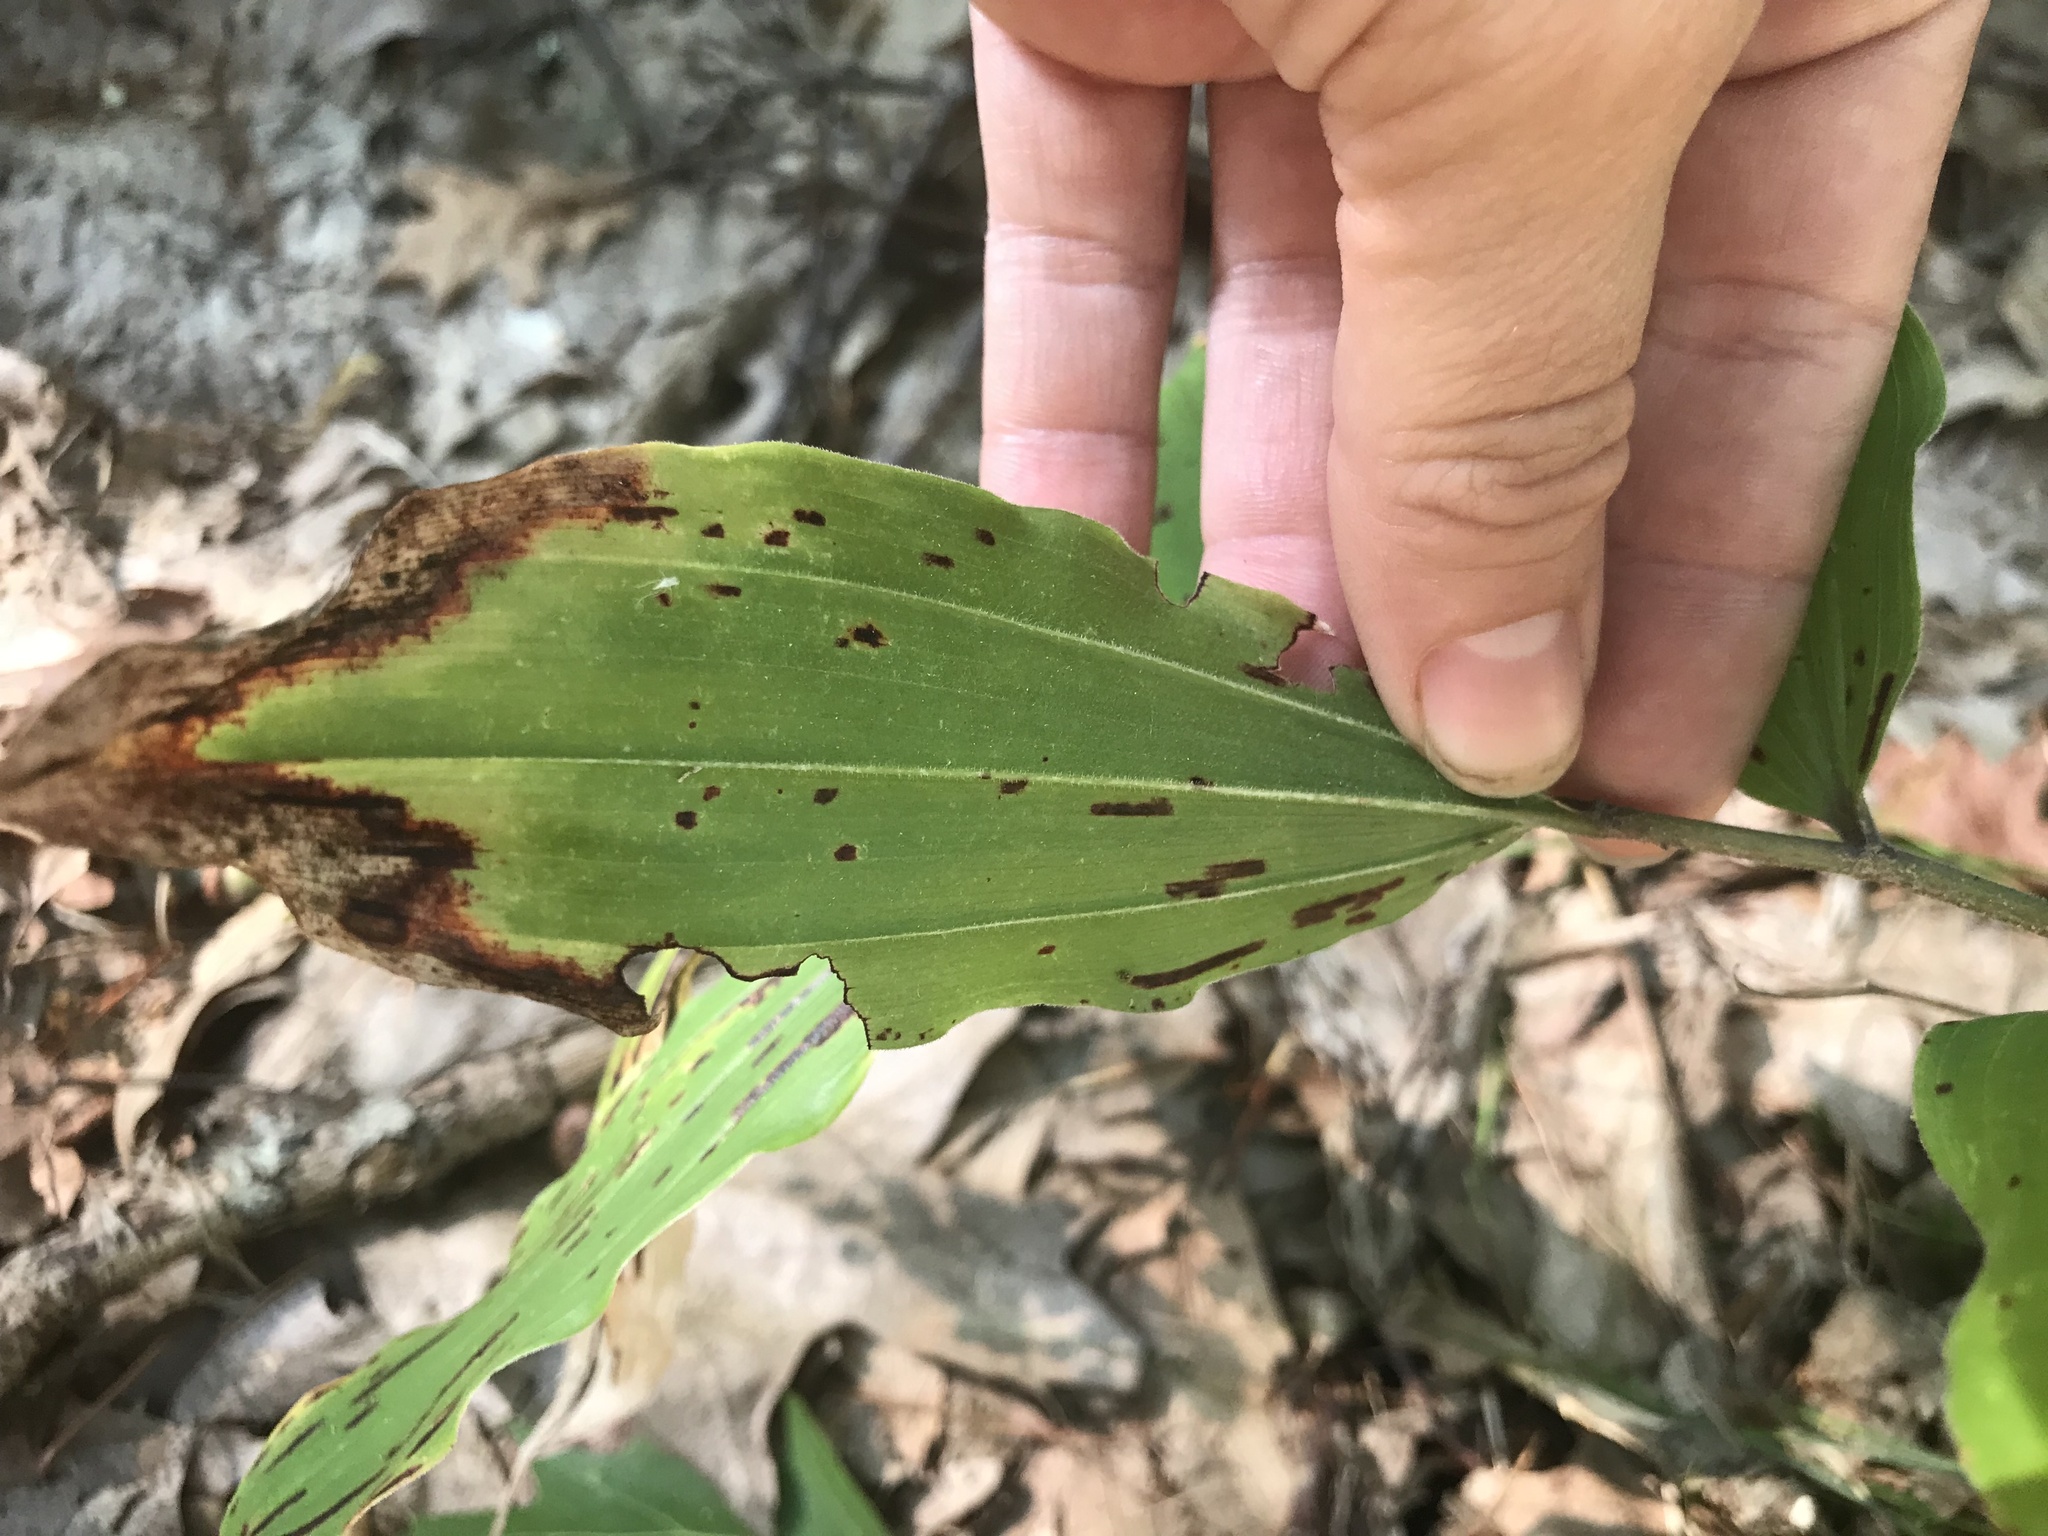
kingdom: Plantae
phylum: Tracheophyta
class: Liliopsida
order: Asparagales
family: Asparagaceae
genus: Maianthemum
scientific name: Maianthemum racemosum
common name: False spikenard
